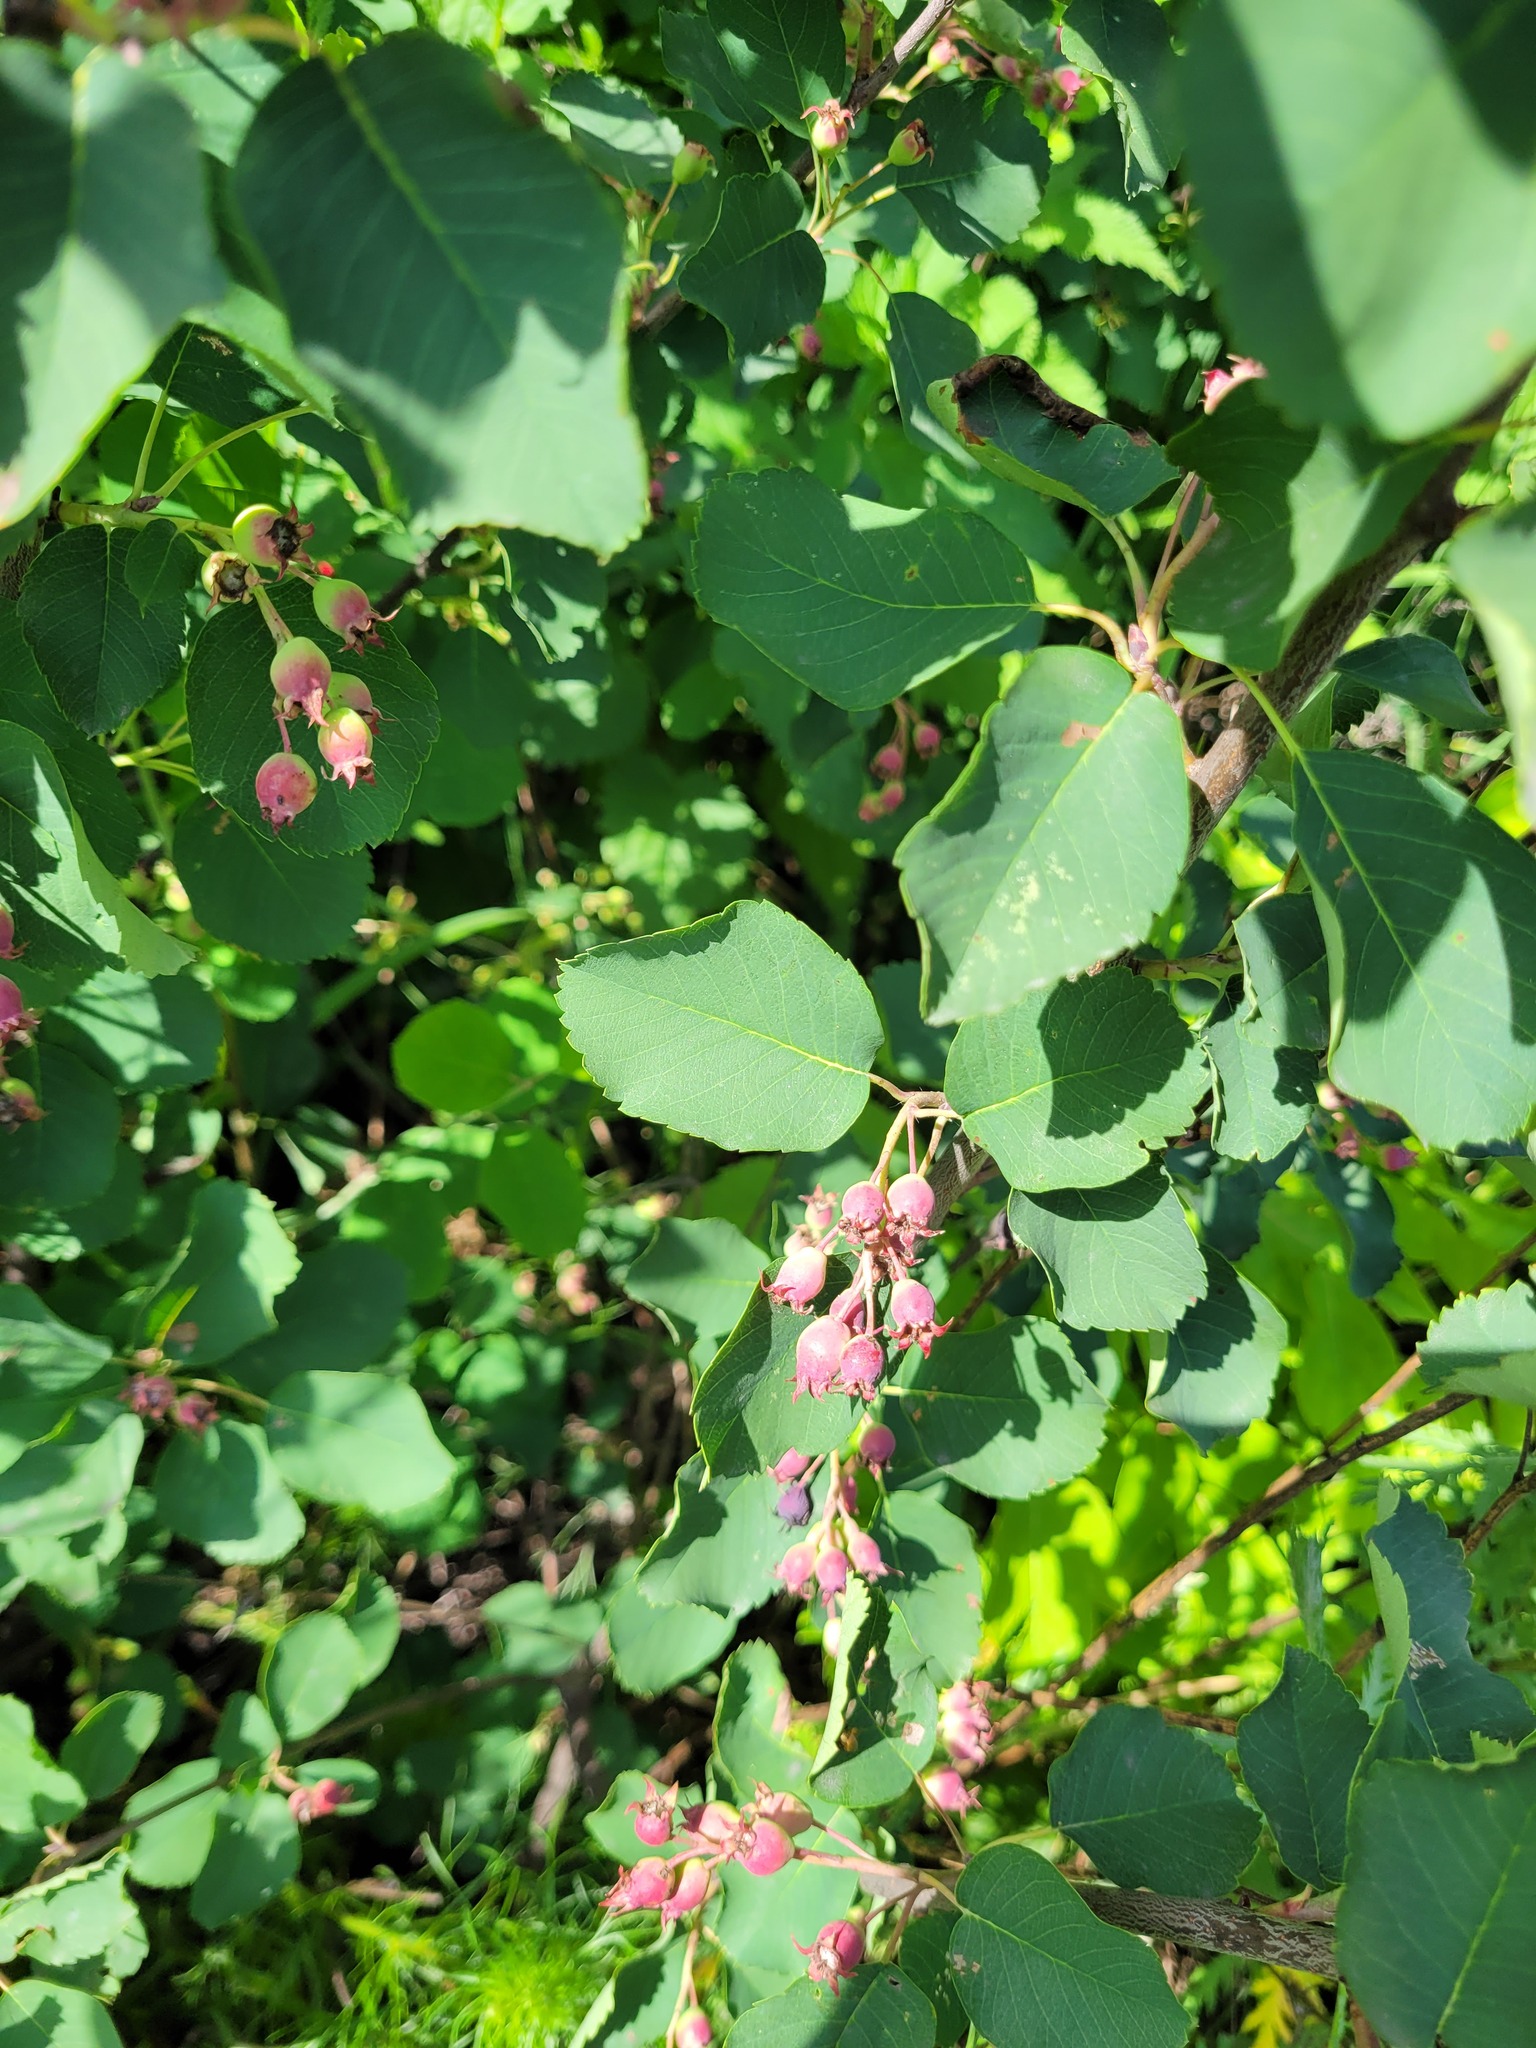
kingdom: Plantae
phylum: Tracheophyta
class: Magnoliopsida
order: Rosales
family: Rosaceae
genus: Amelanchier
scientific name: Amelanchier
